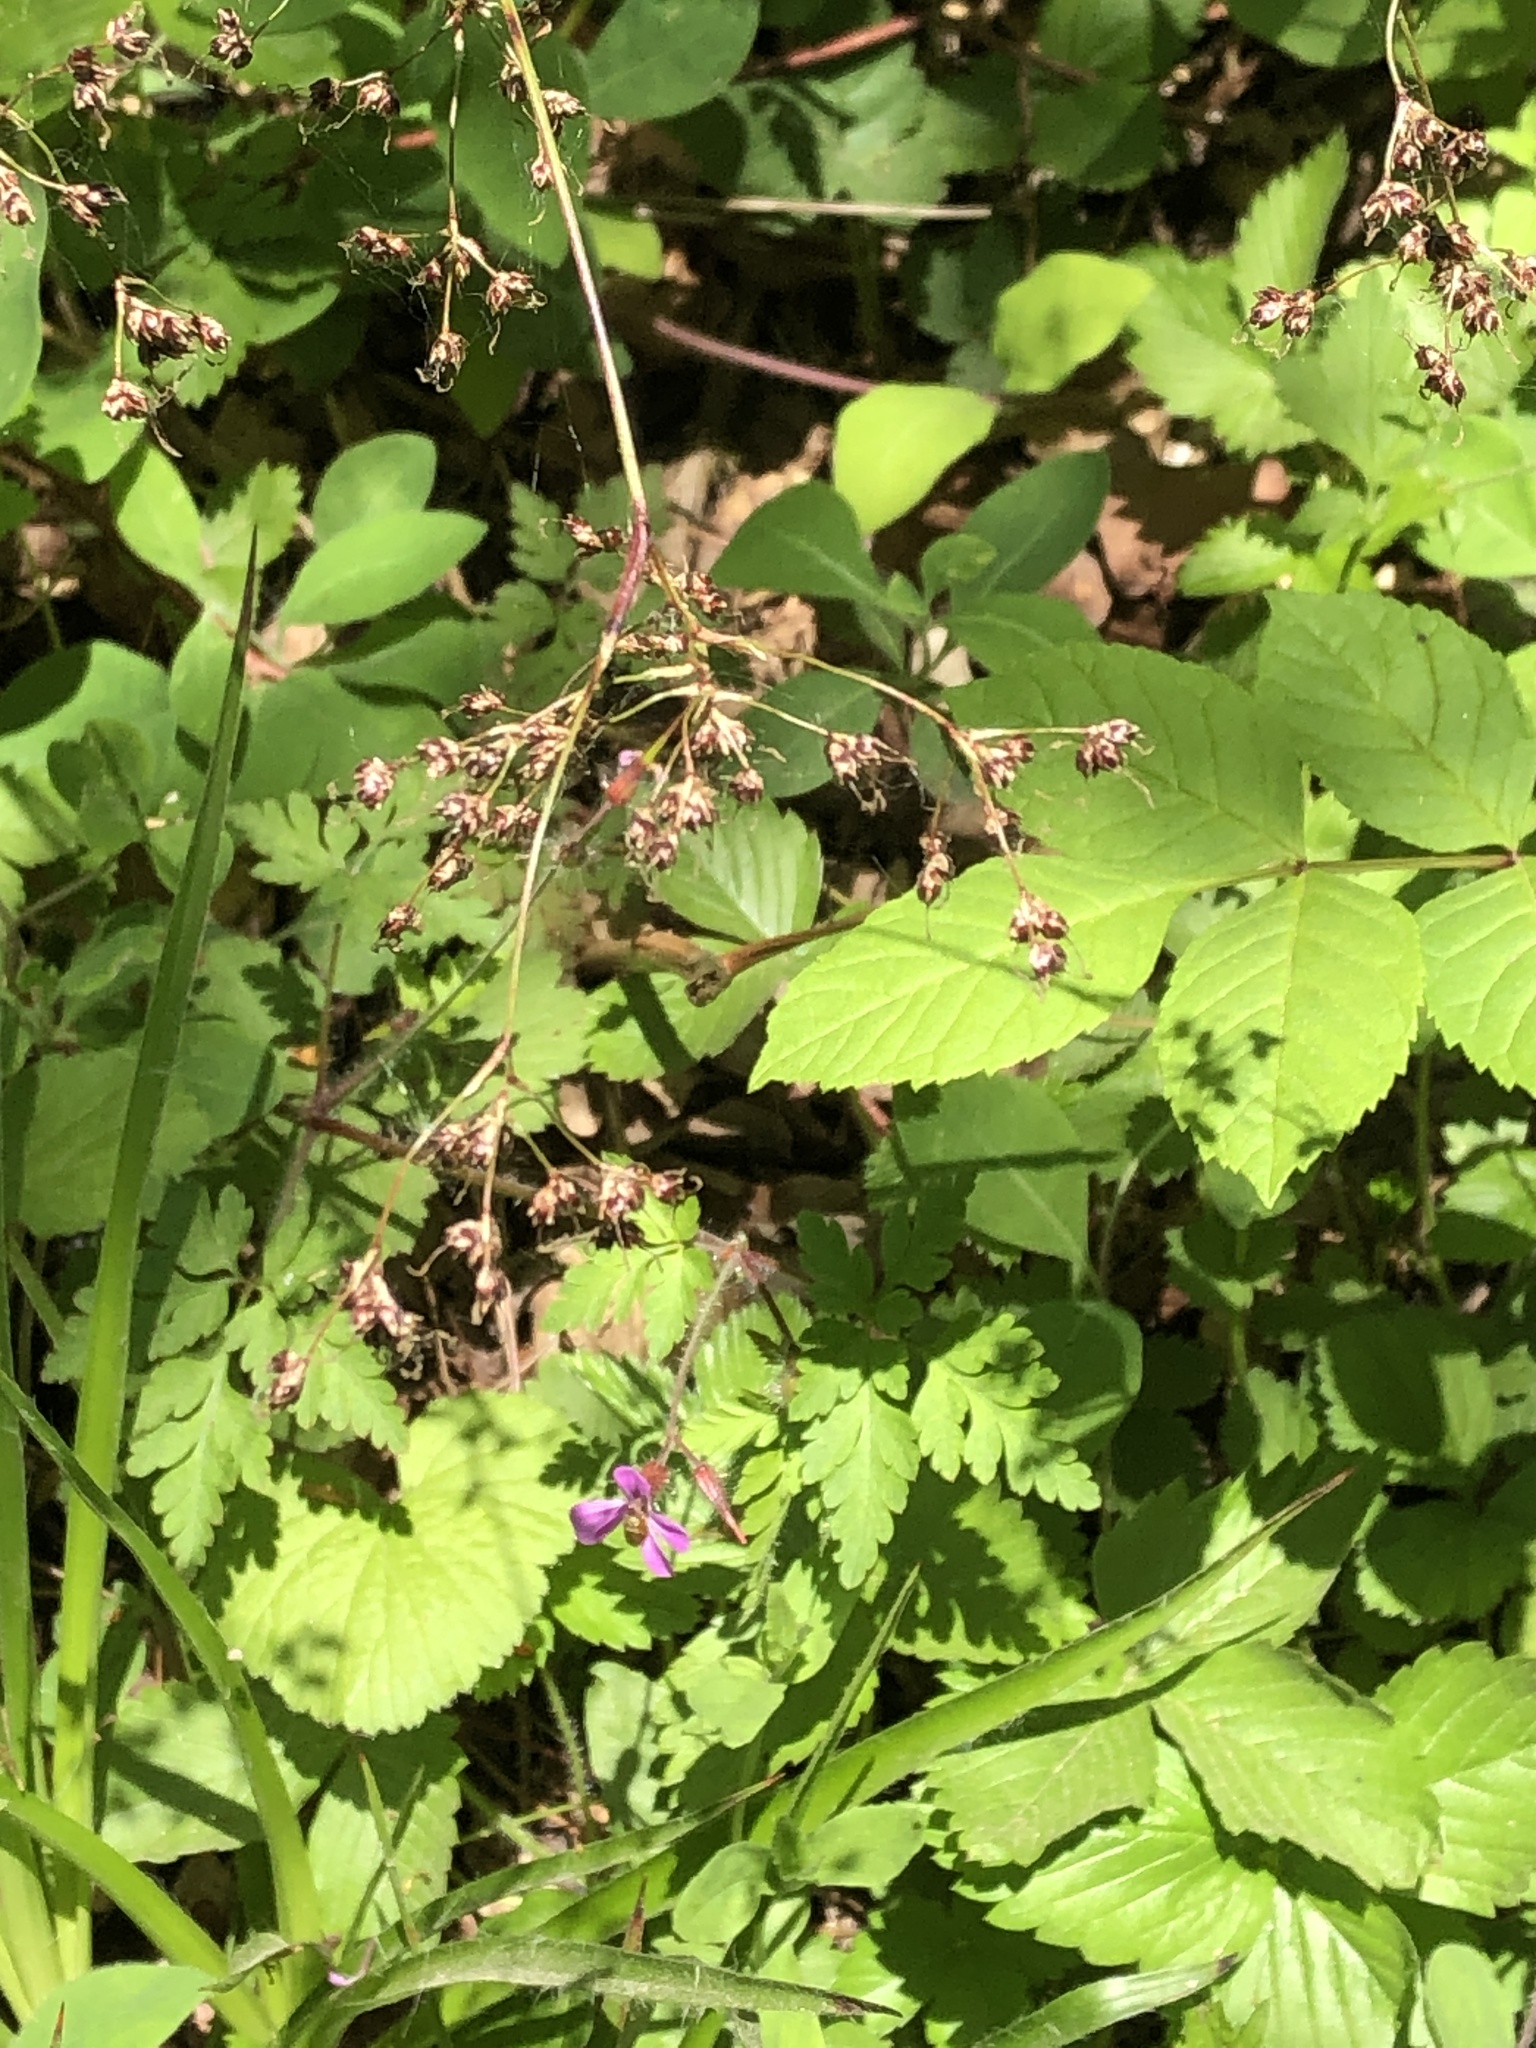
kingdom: Plantae
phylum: Tracheophyta
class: Liliopsida
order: Poales
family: Juncaceae
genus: Luzula
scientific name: Luzula sylvatica
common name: Great wood-rush
